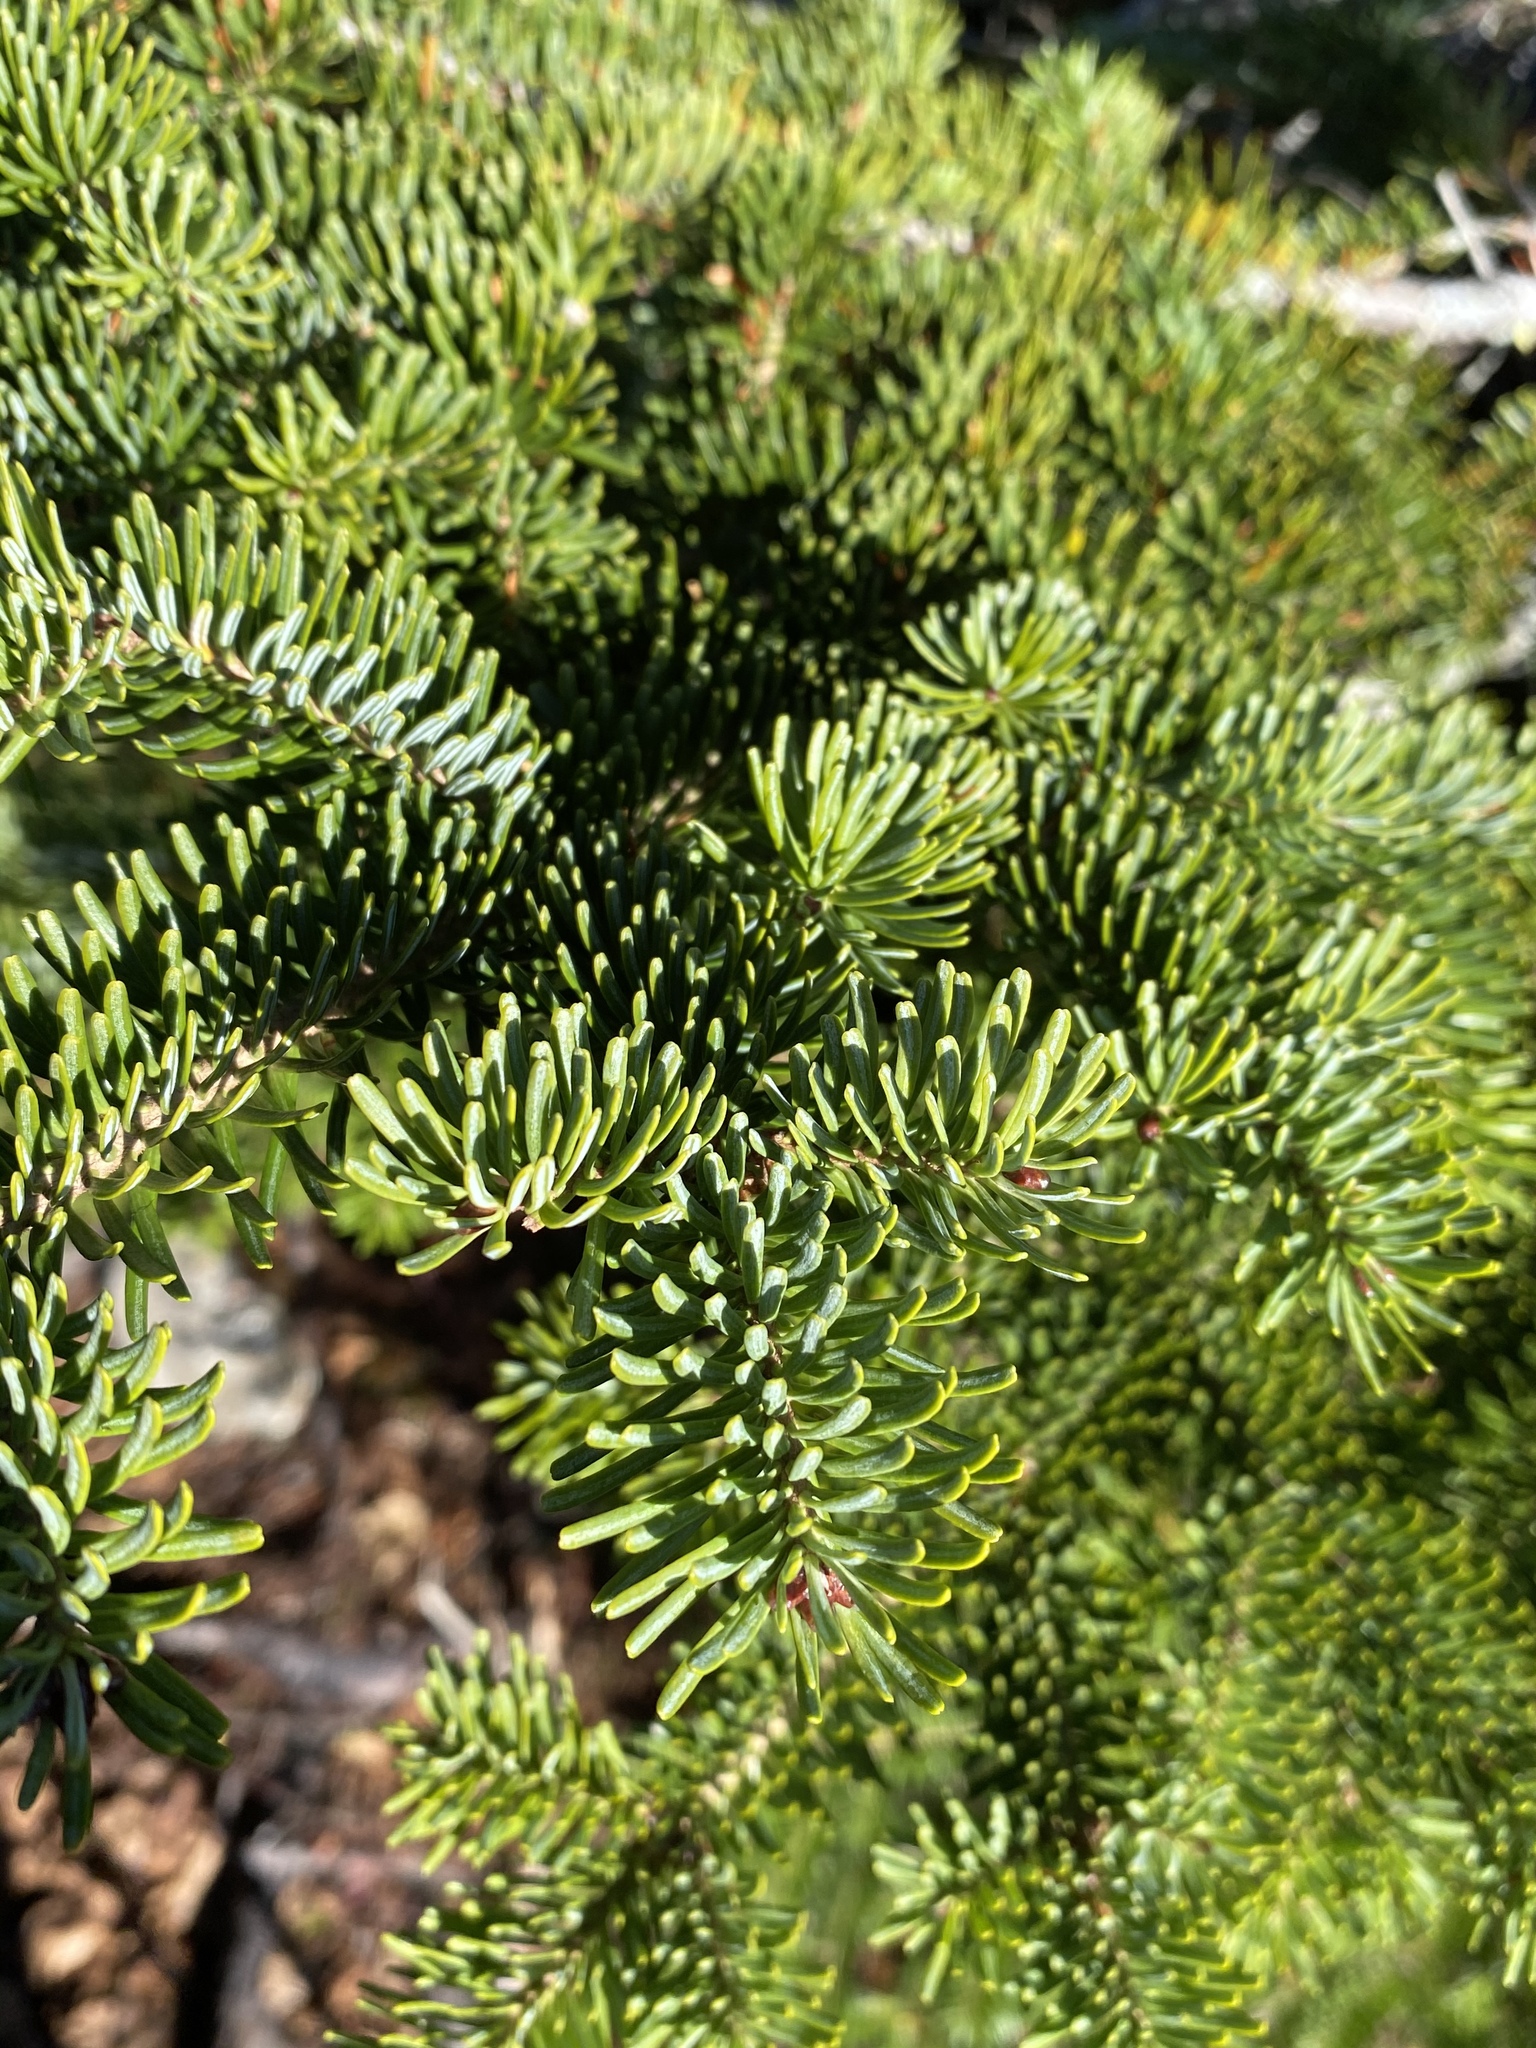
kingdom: Plantae
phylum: Tracheophyta
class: Pinopsida
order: Pinales
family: Pinaceae
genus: Abies
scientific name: Abies balsamea
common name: Balsam fir
